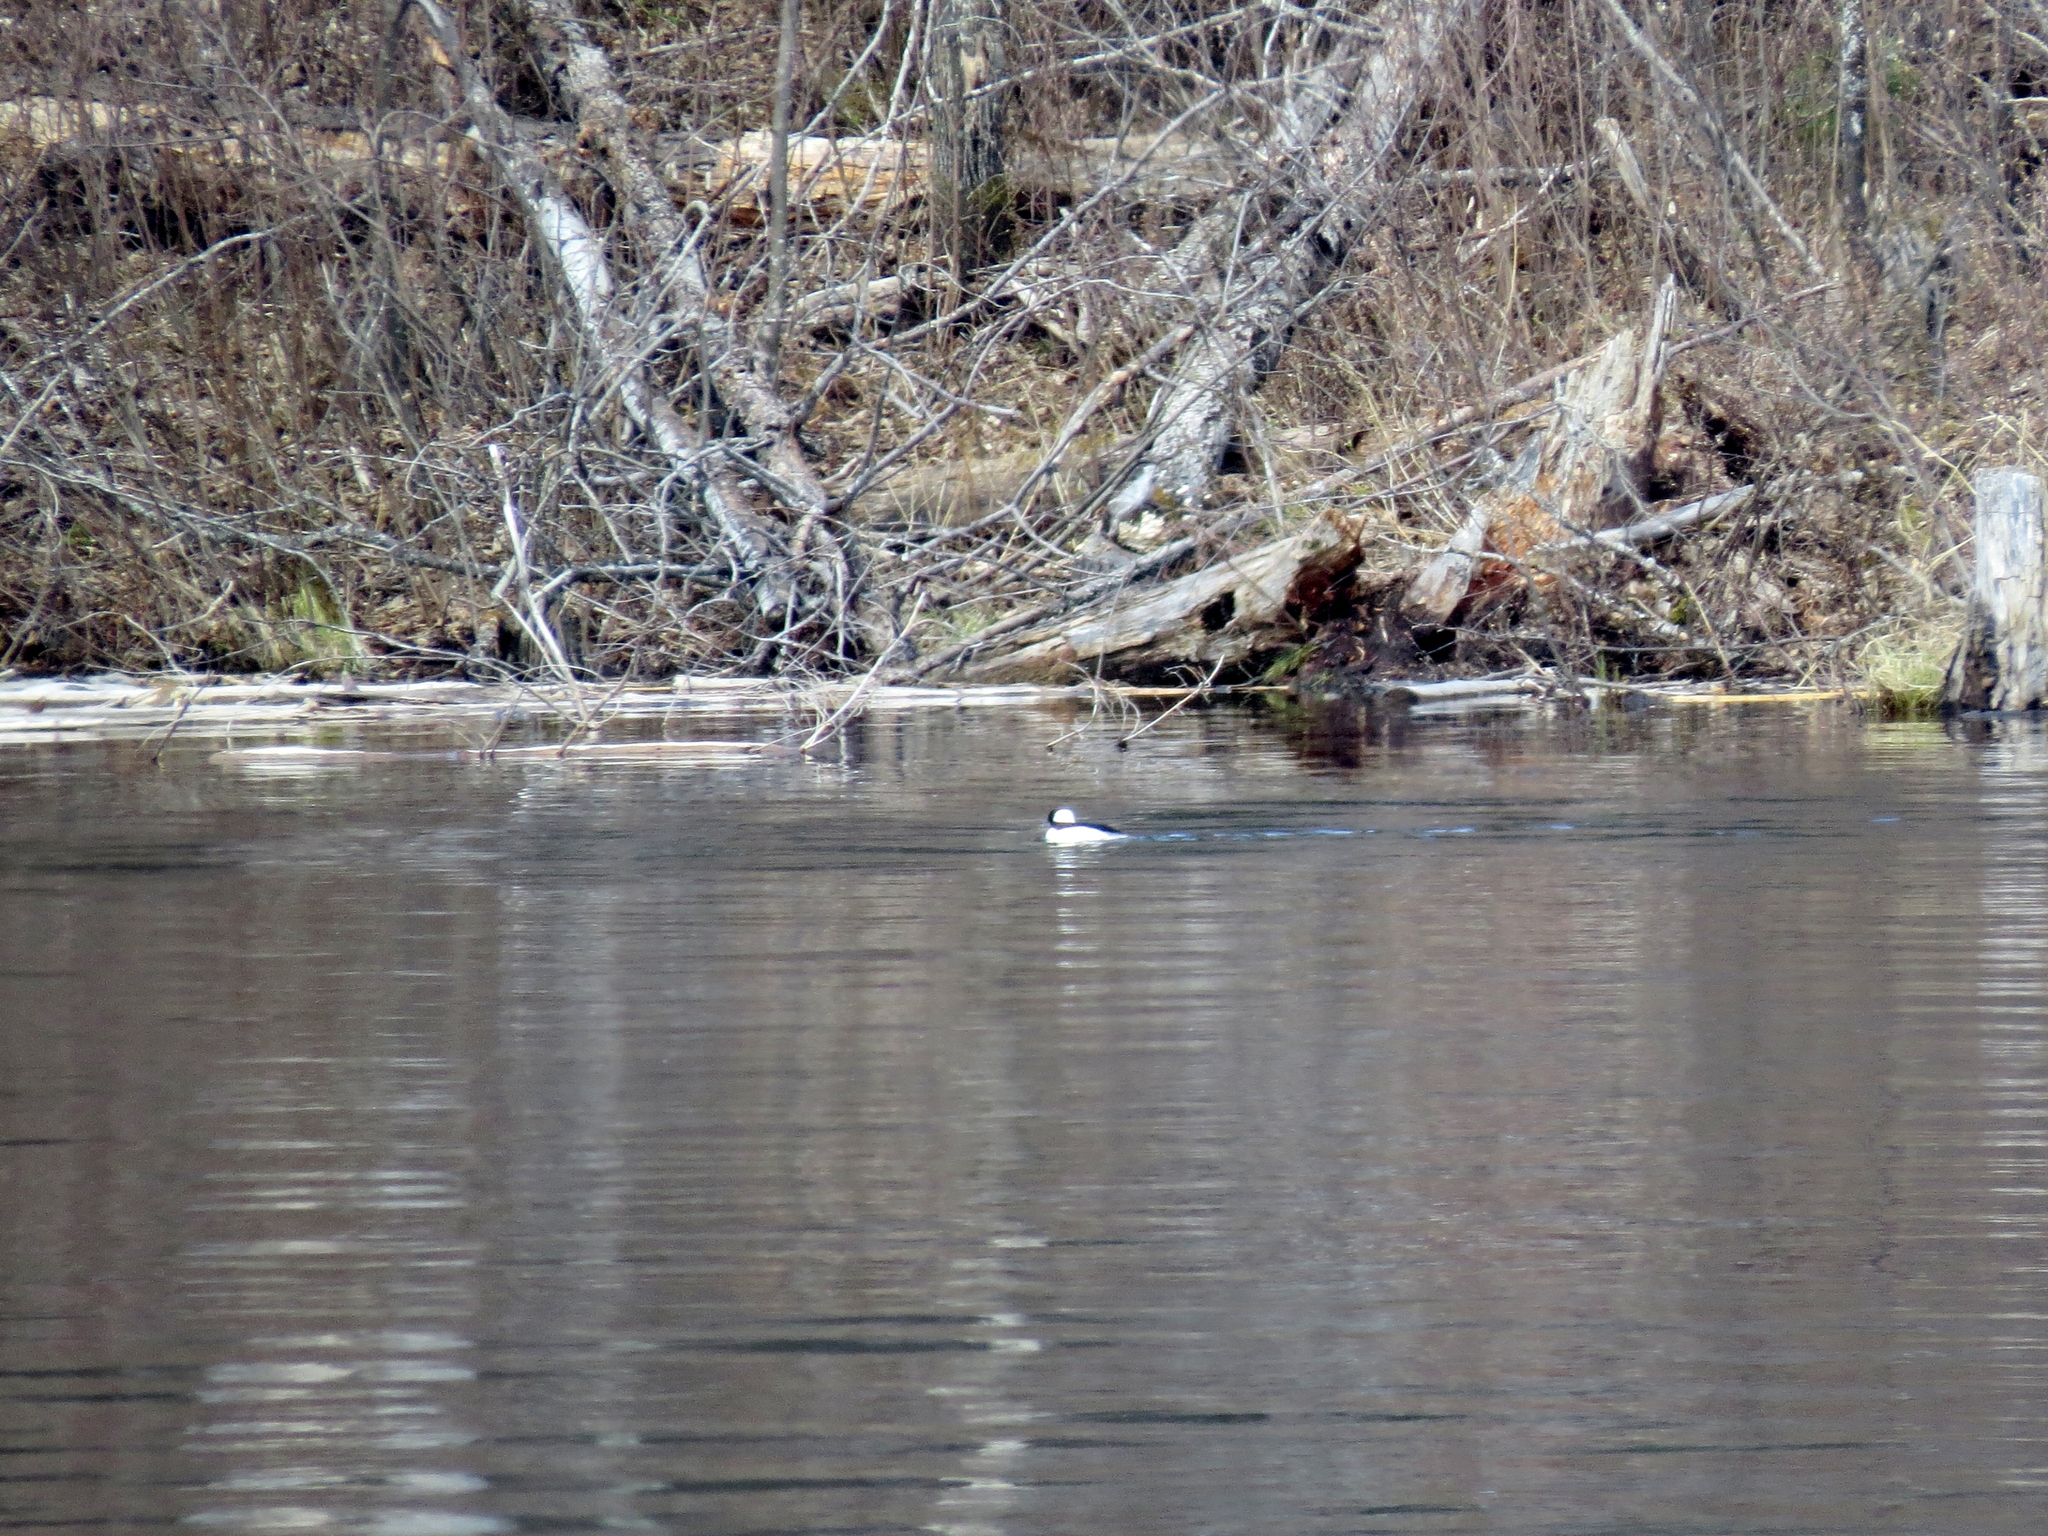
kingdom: Animalia
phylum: Chordata
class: Aves
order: Anseriformes
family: Anatidae
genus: Bucephala
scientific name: Bucephala albeola
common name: Bufflehead
